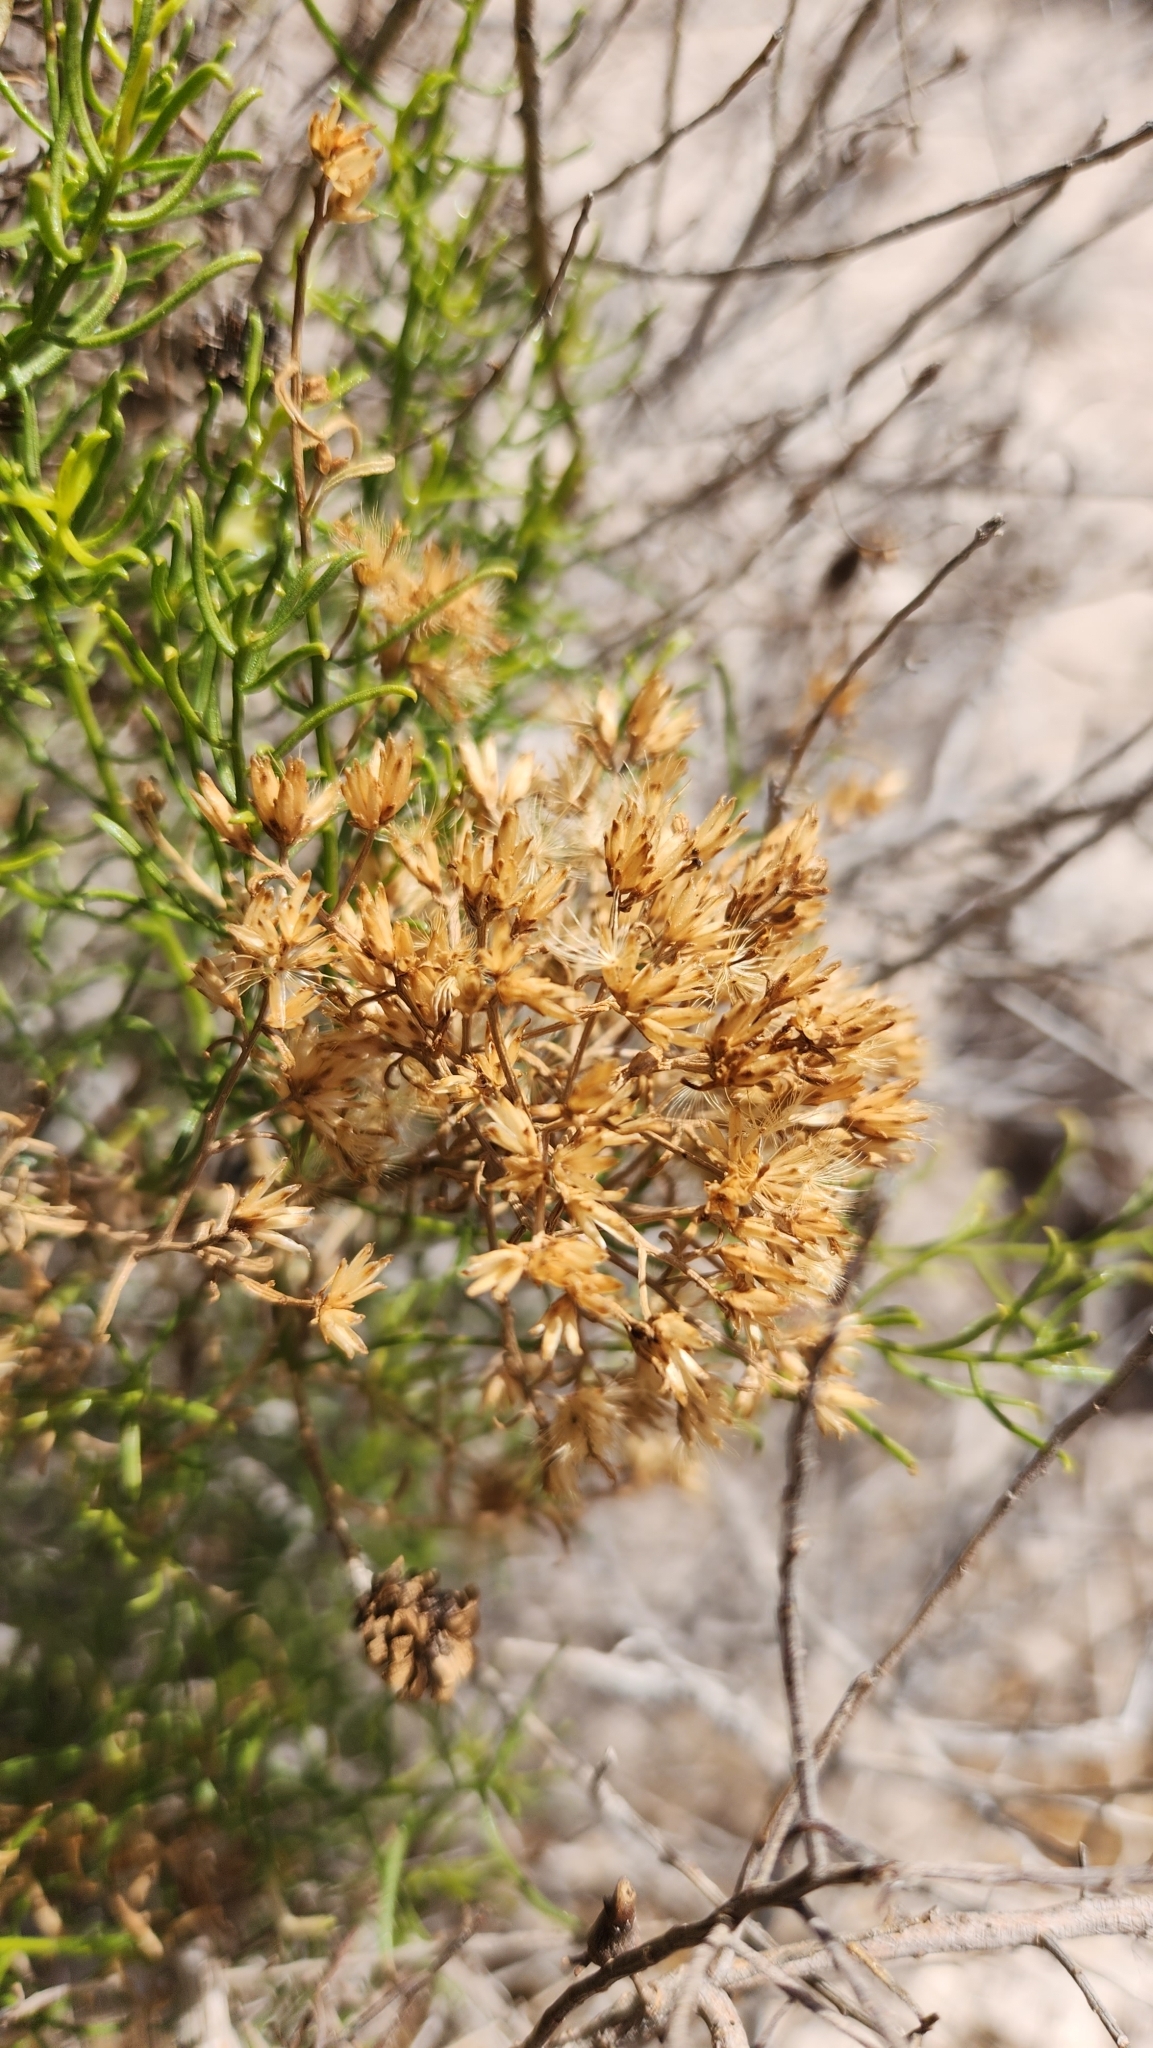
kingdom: Plantae
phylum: Tracheophyta
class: Magnoliopsida
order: Asterales
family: Asteraceae
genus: Gundlachia
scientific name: Gundlachia diffusa
